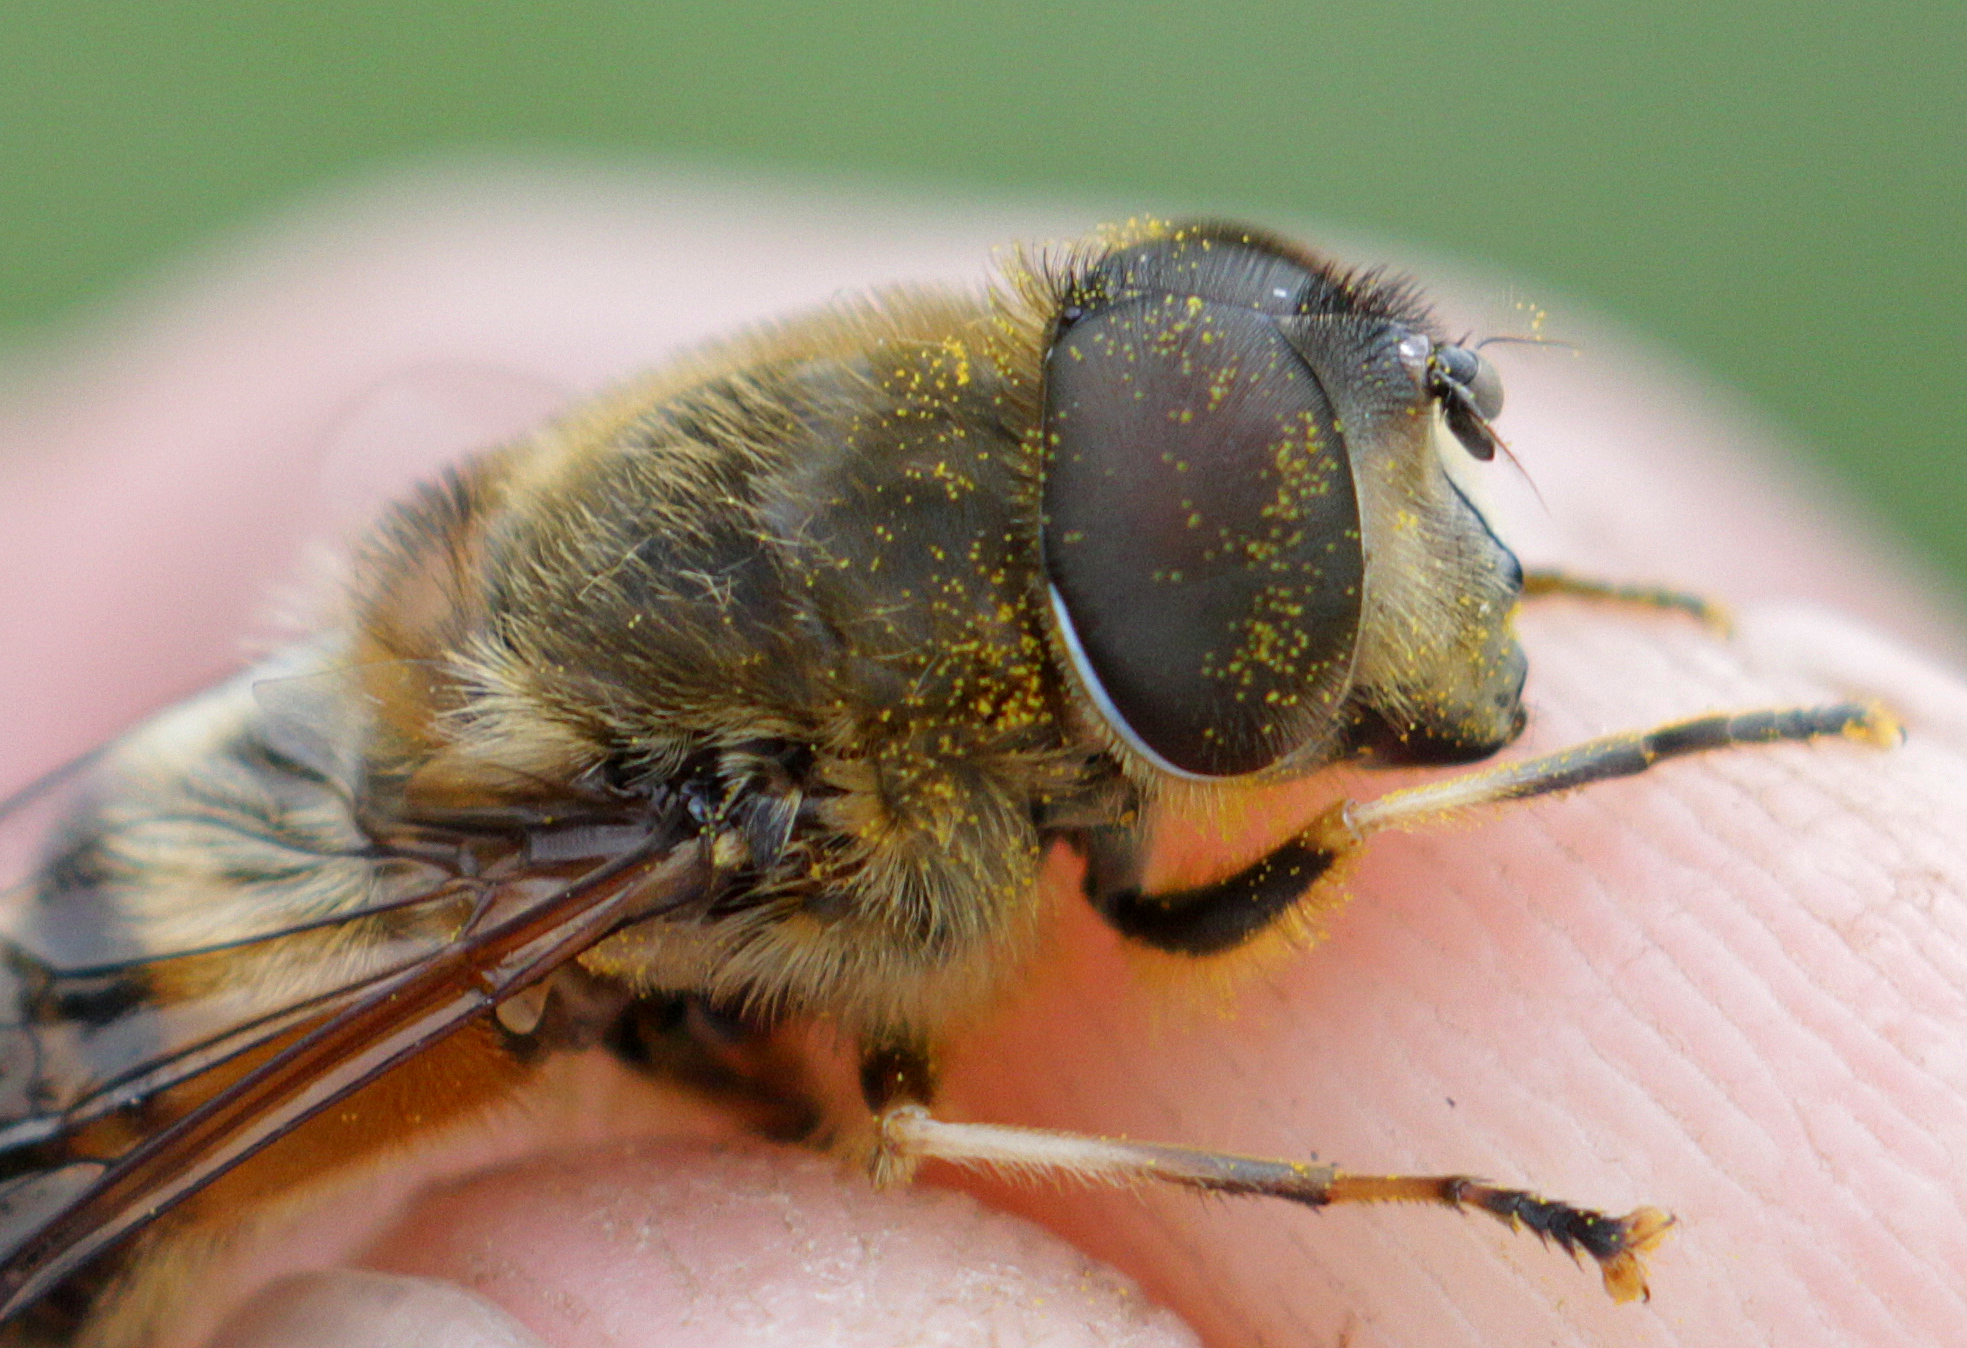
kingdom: Animalia
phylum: Arthropoda
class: Insecta
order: Diptera
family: Syrphidae
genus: Eristalis
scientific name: Eristalis pertinax
